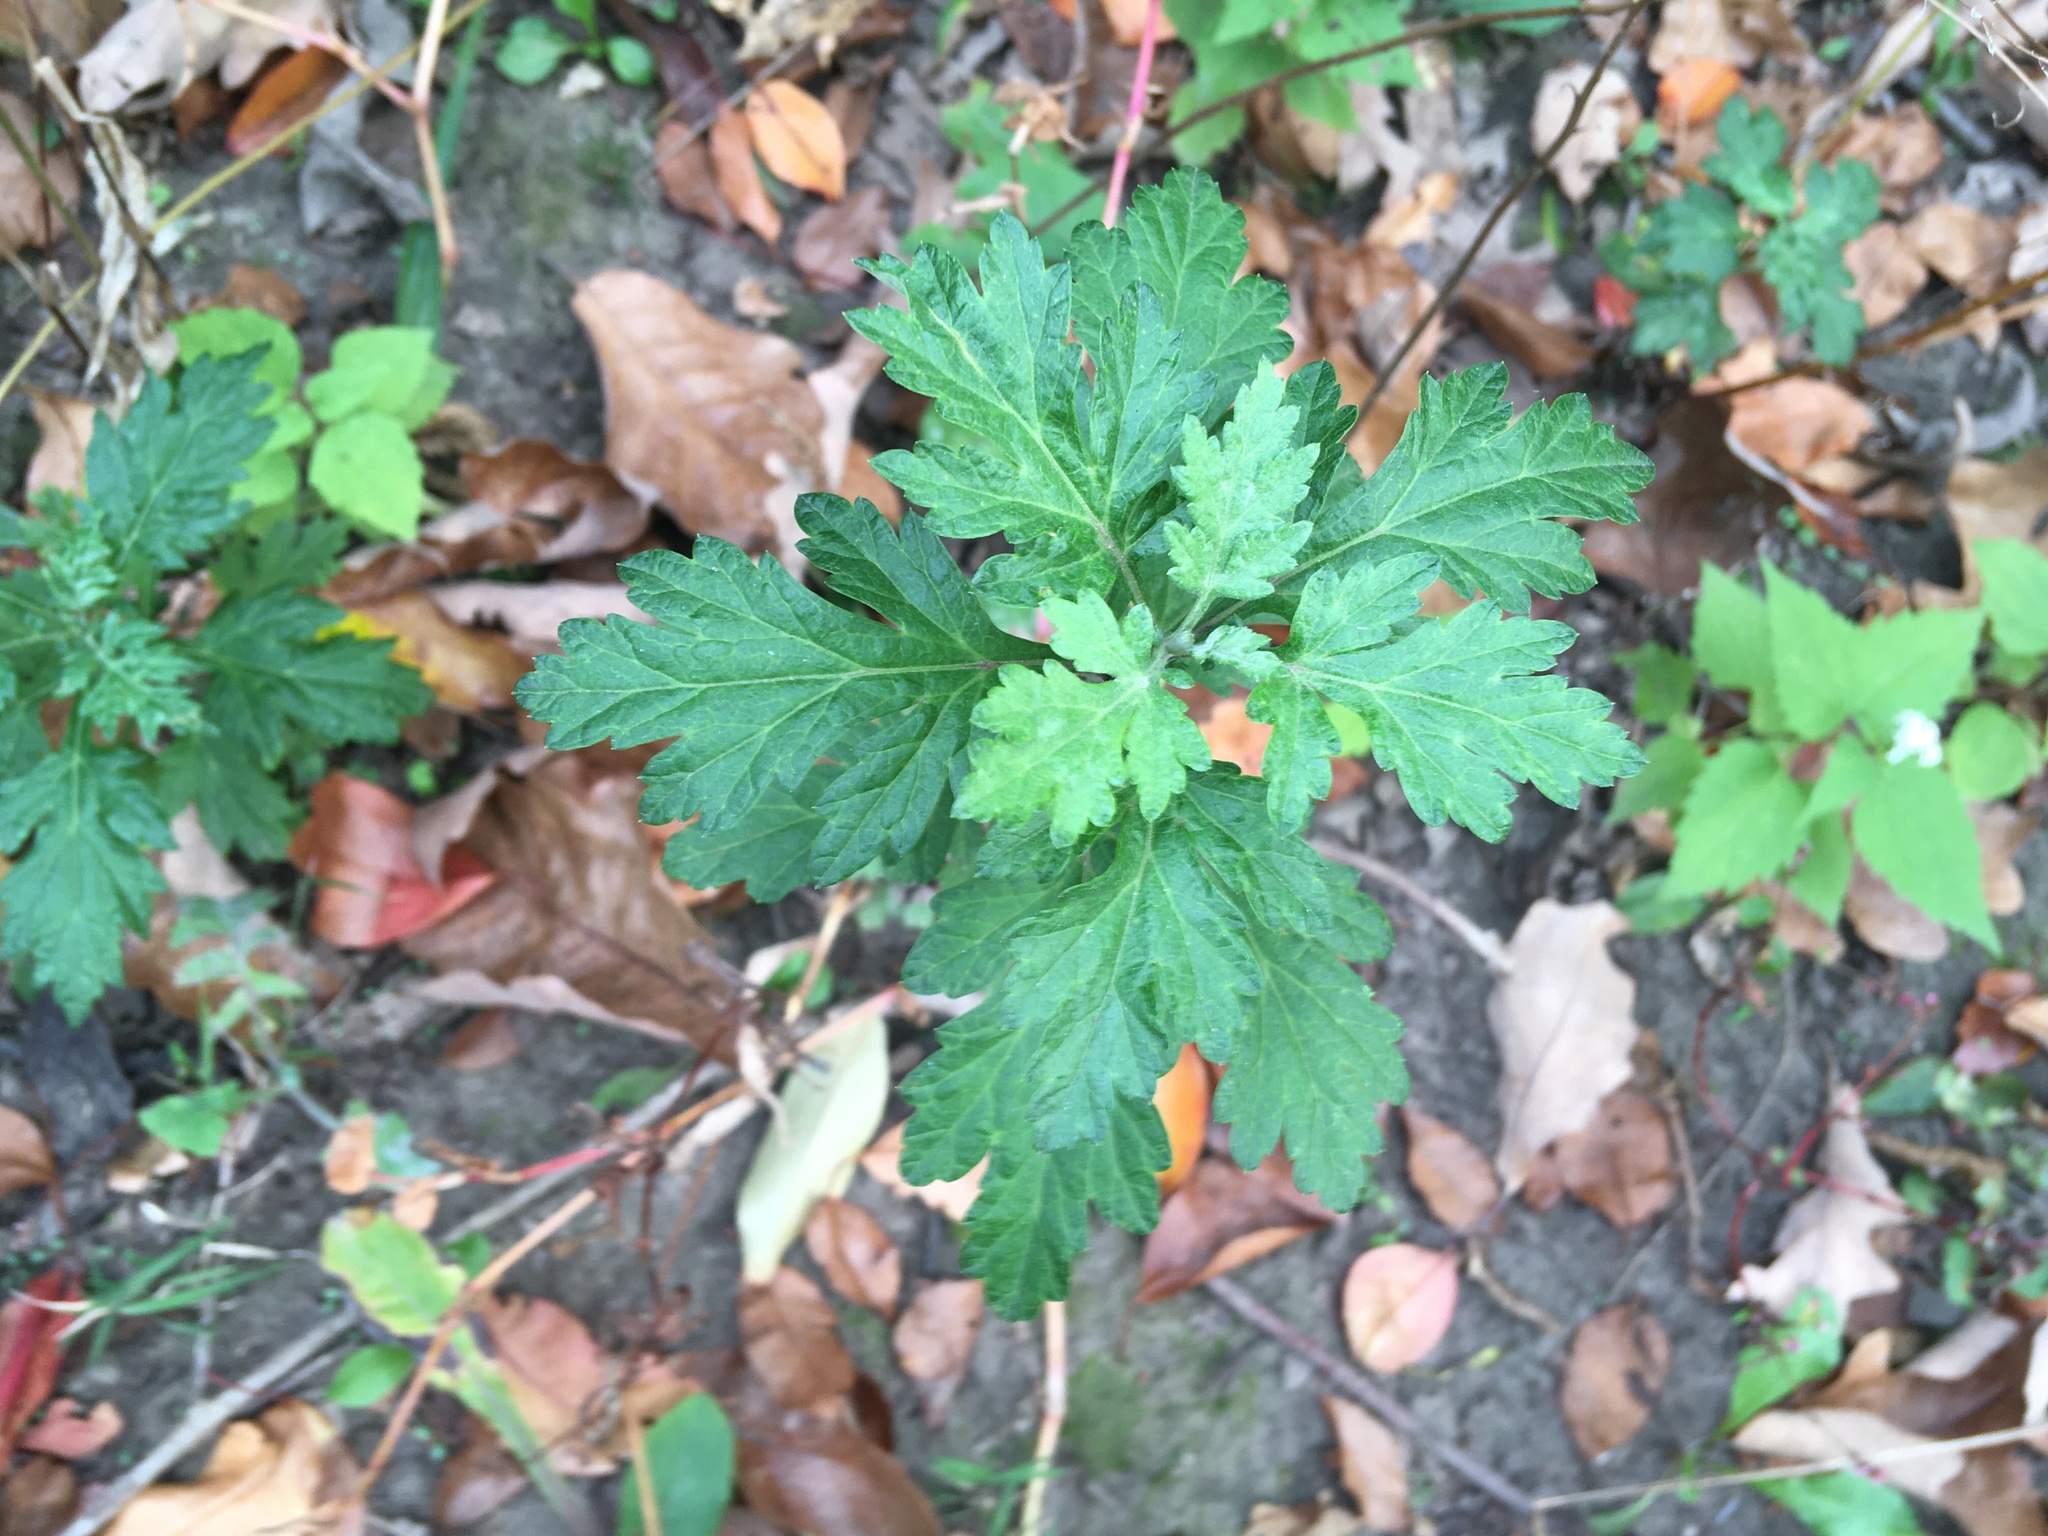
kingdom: Plantae
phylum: Tracheophyta
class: Magnoliopsida
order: Asterales
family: Asteraceae
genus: Artemisia
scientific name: Artemisia vulgaris
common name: Mugwort
